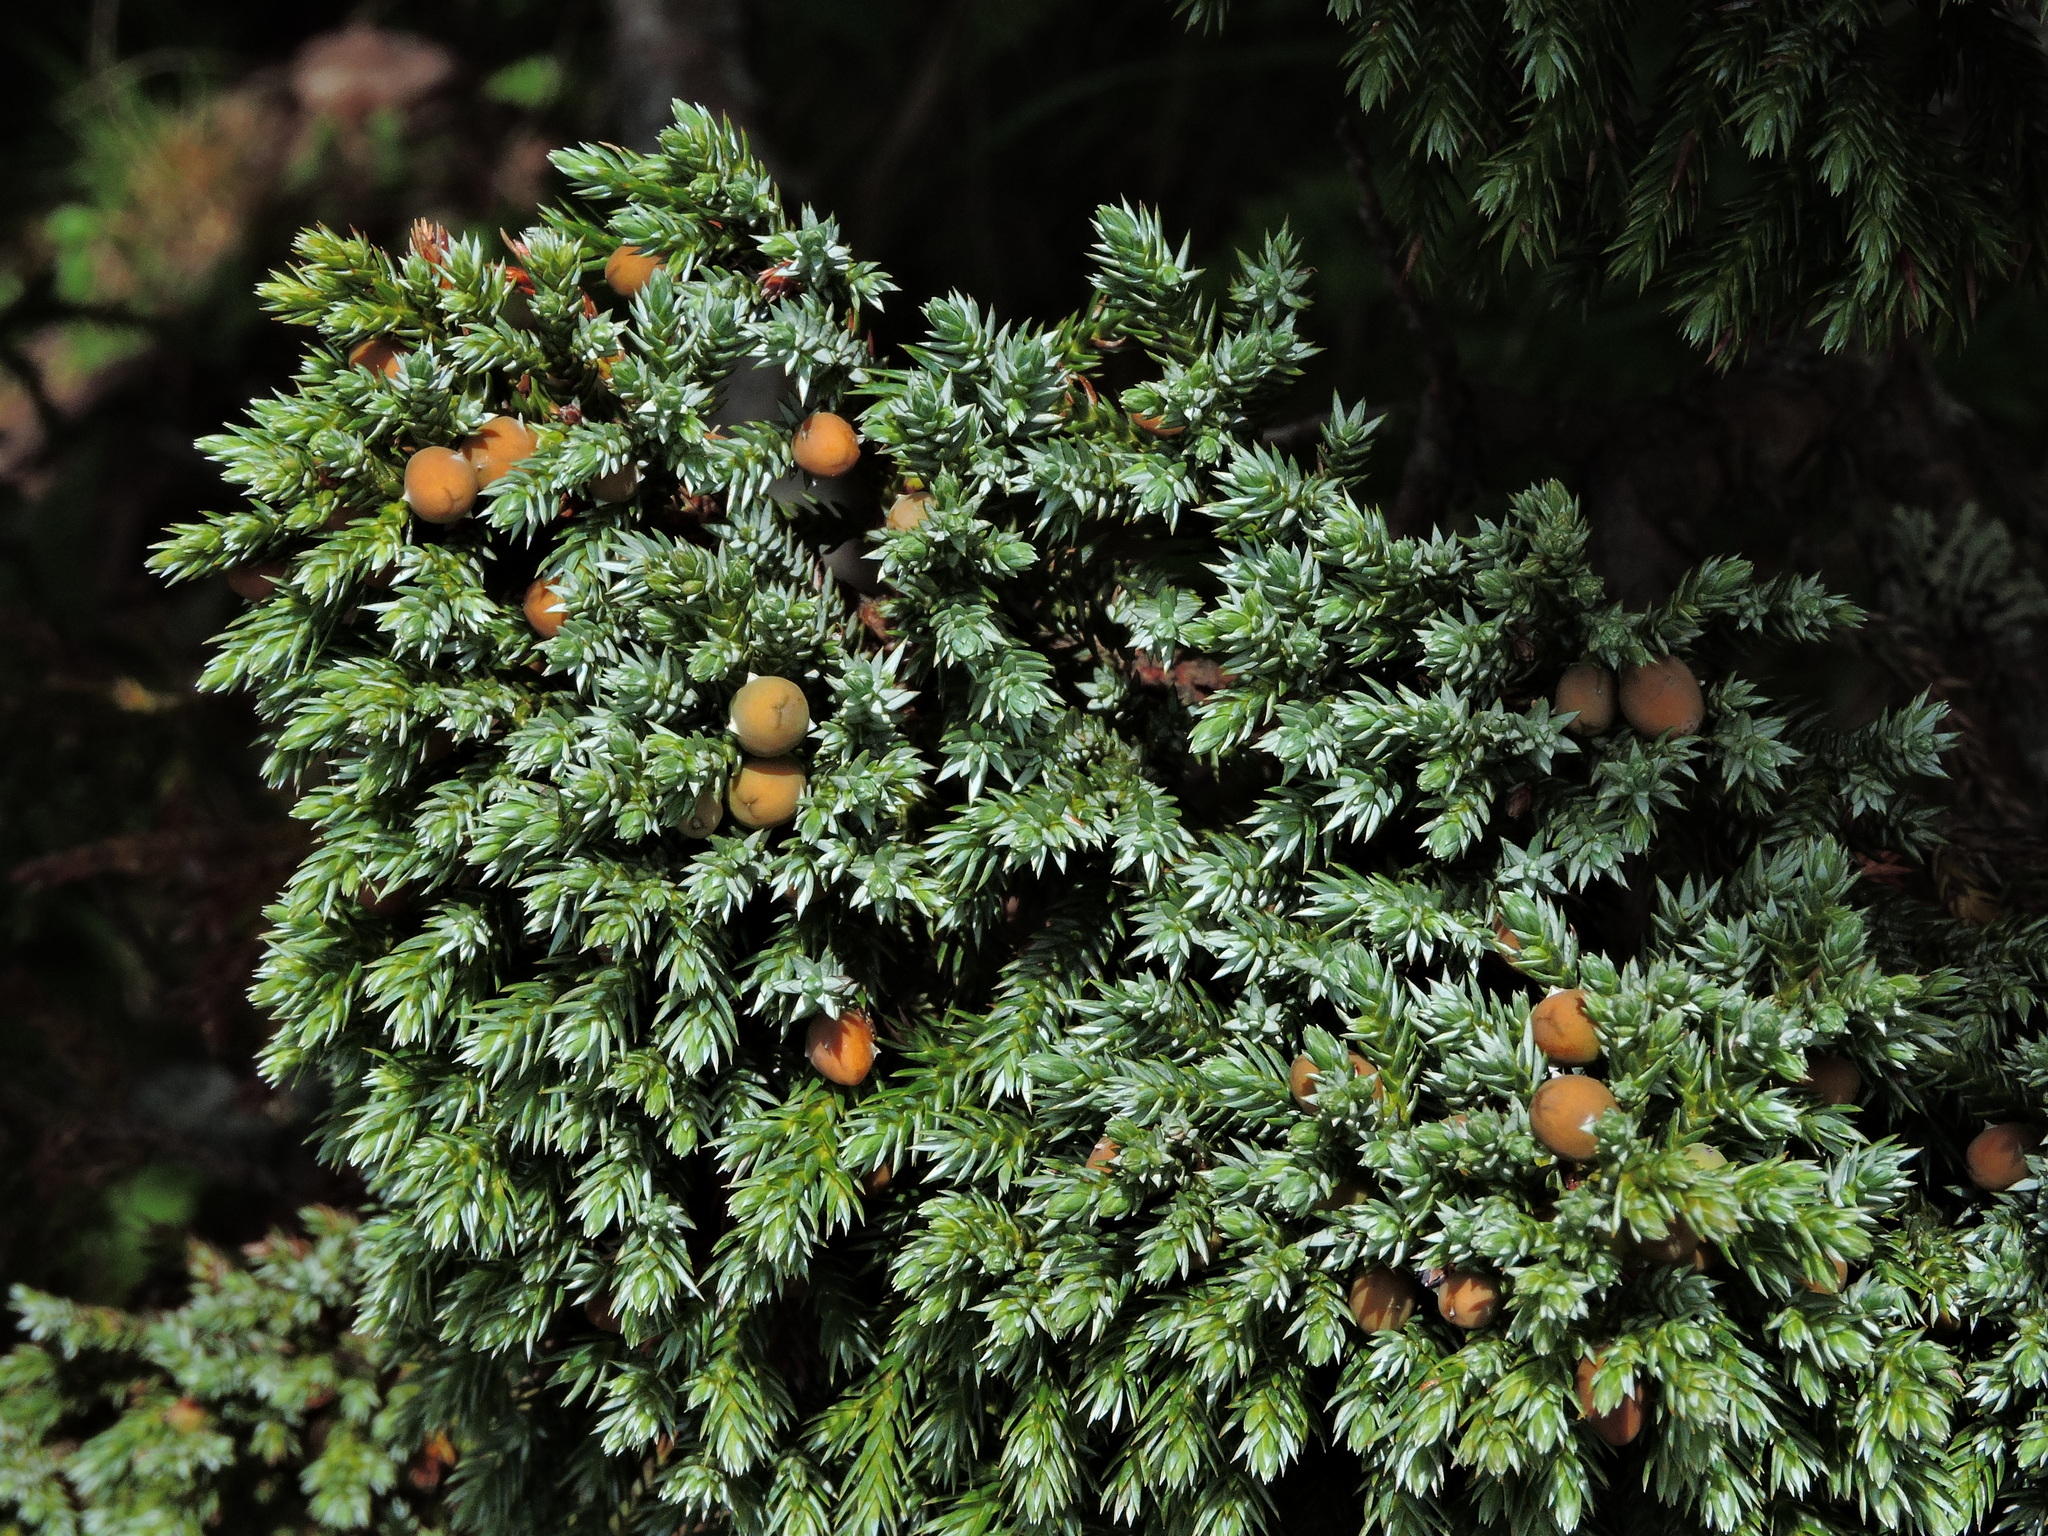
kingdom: Plantae
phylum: Tracheophyta
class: Pinopsida
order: Pinales
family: Cupressaceae
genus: Juniperus
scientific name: Juniperus squamata
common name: Flaky juniper
